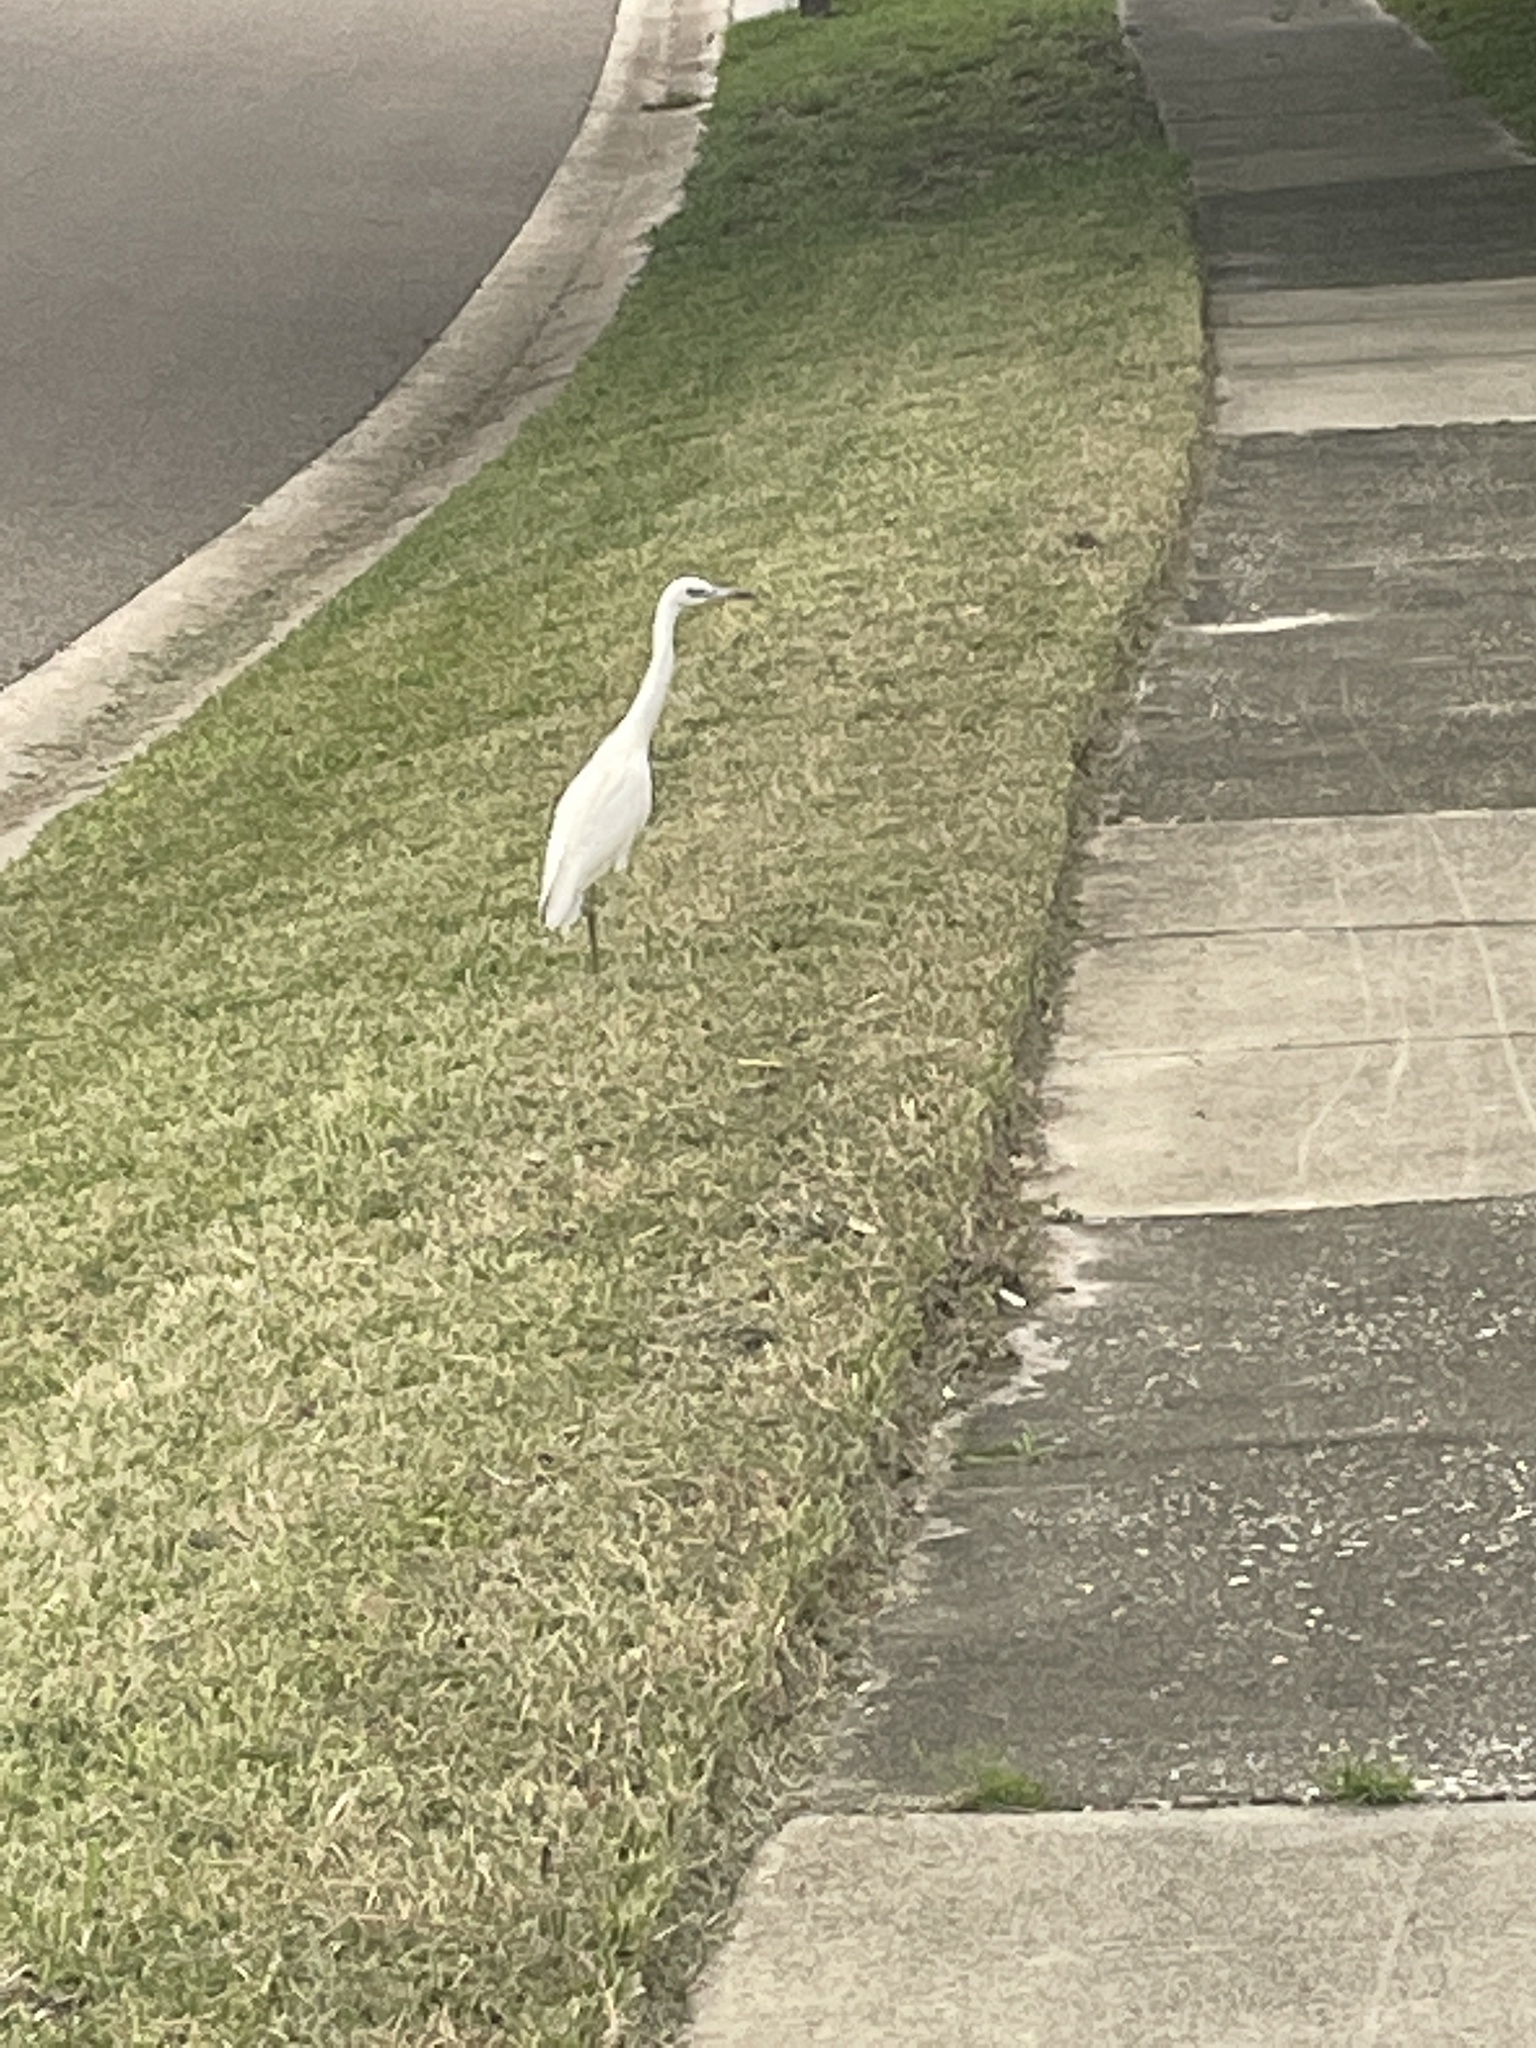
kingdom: Animalia
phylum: Chordata
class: Aves
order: Pelecaniformes
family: Ardeidae
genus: Egretta
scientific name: Egretta caerulea
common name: Little blue heron
